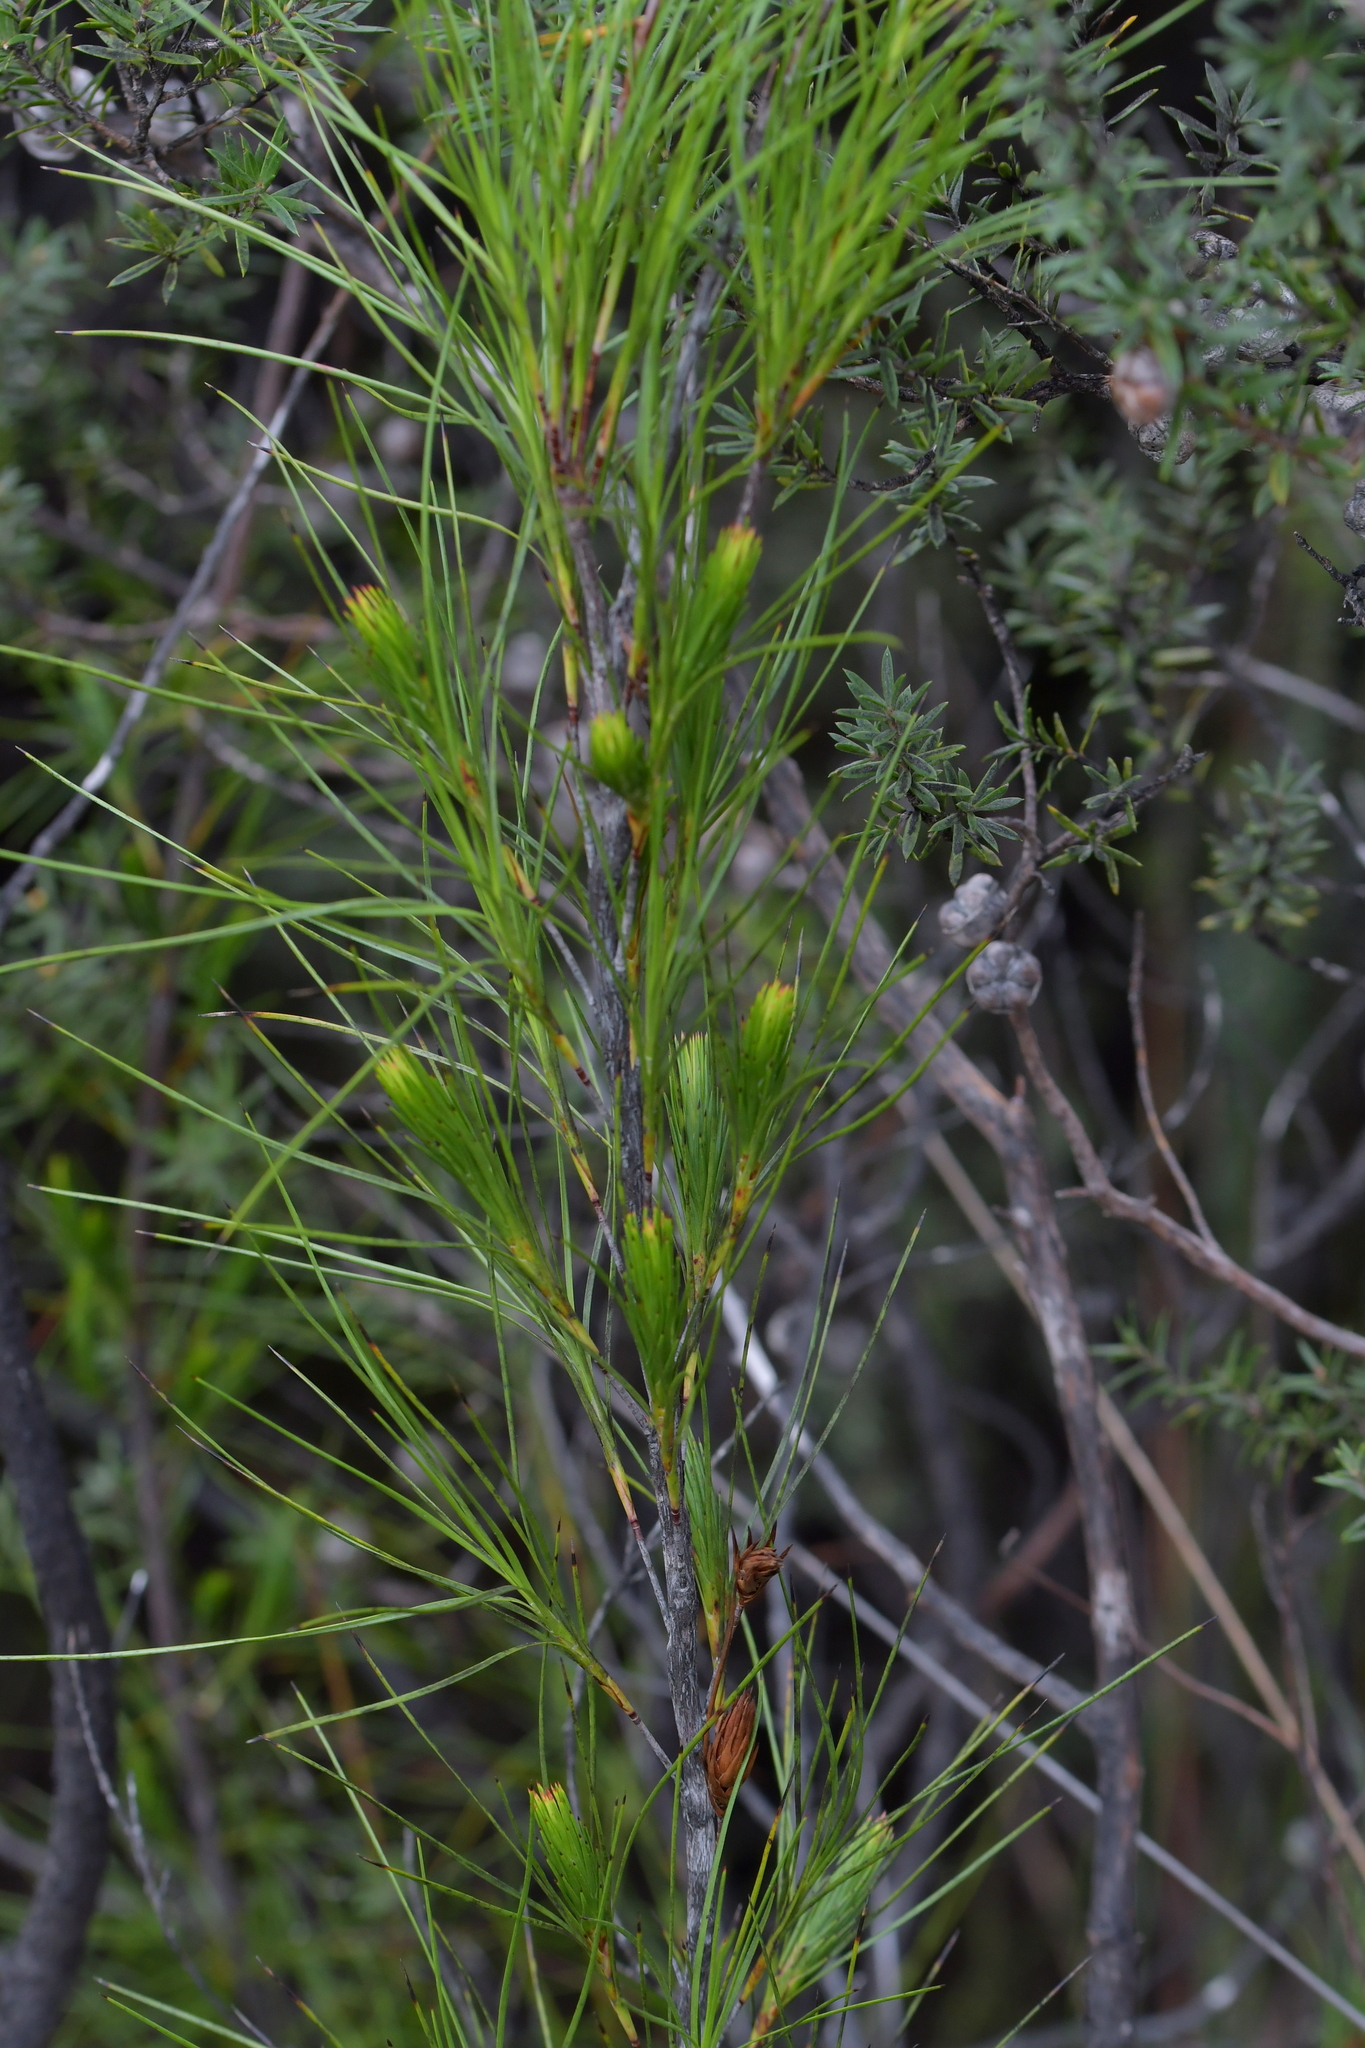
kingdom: Plantae
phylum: Tracheophyta
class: Magnoliopsida
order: Ericales
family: Ericaceae
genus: Dracophyllum
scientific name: Dracophyllum lessonianum
